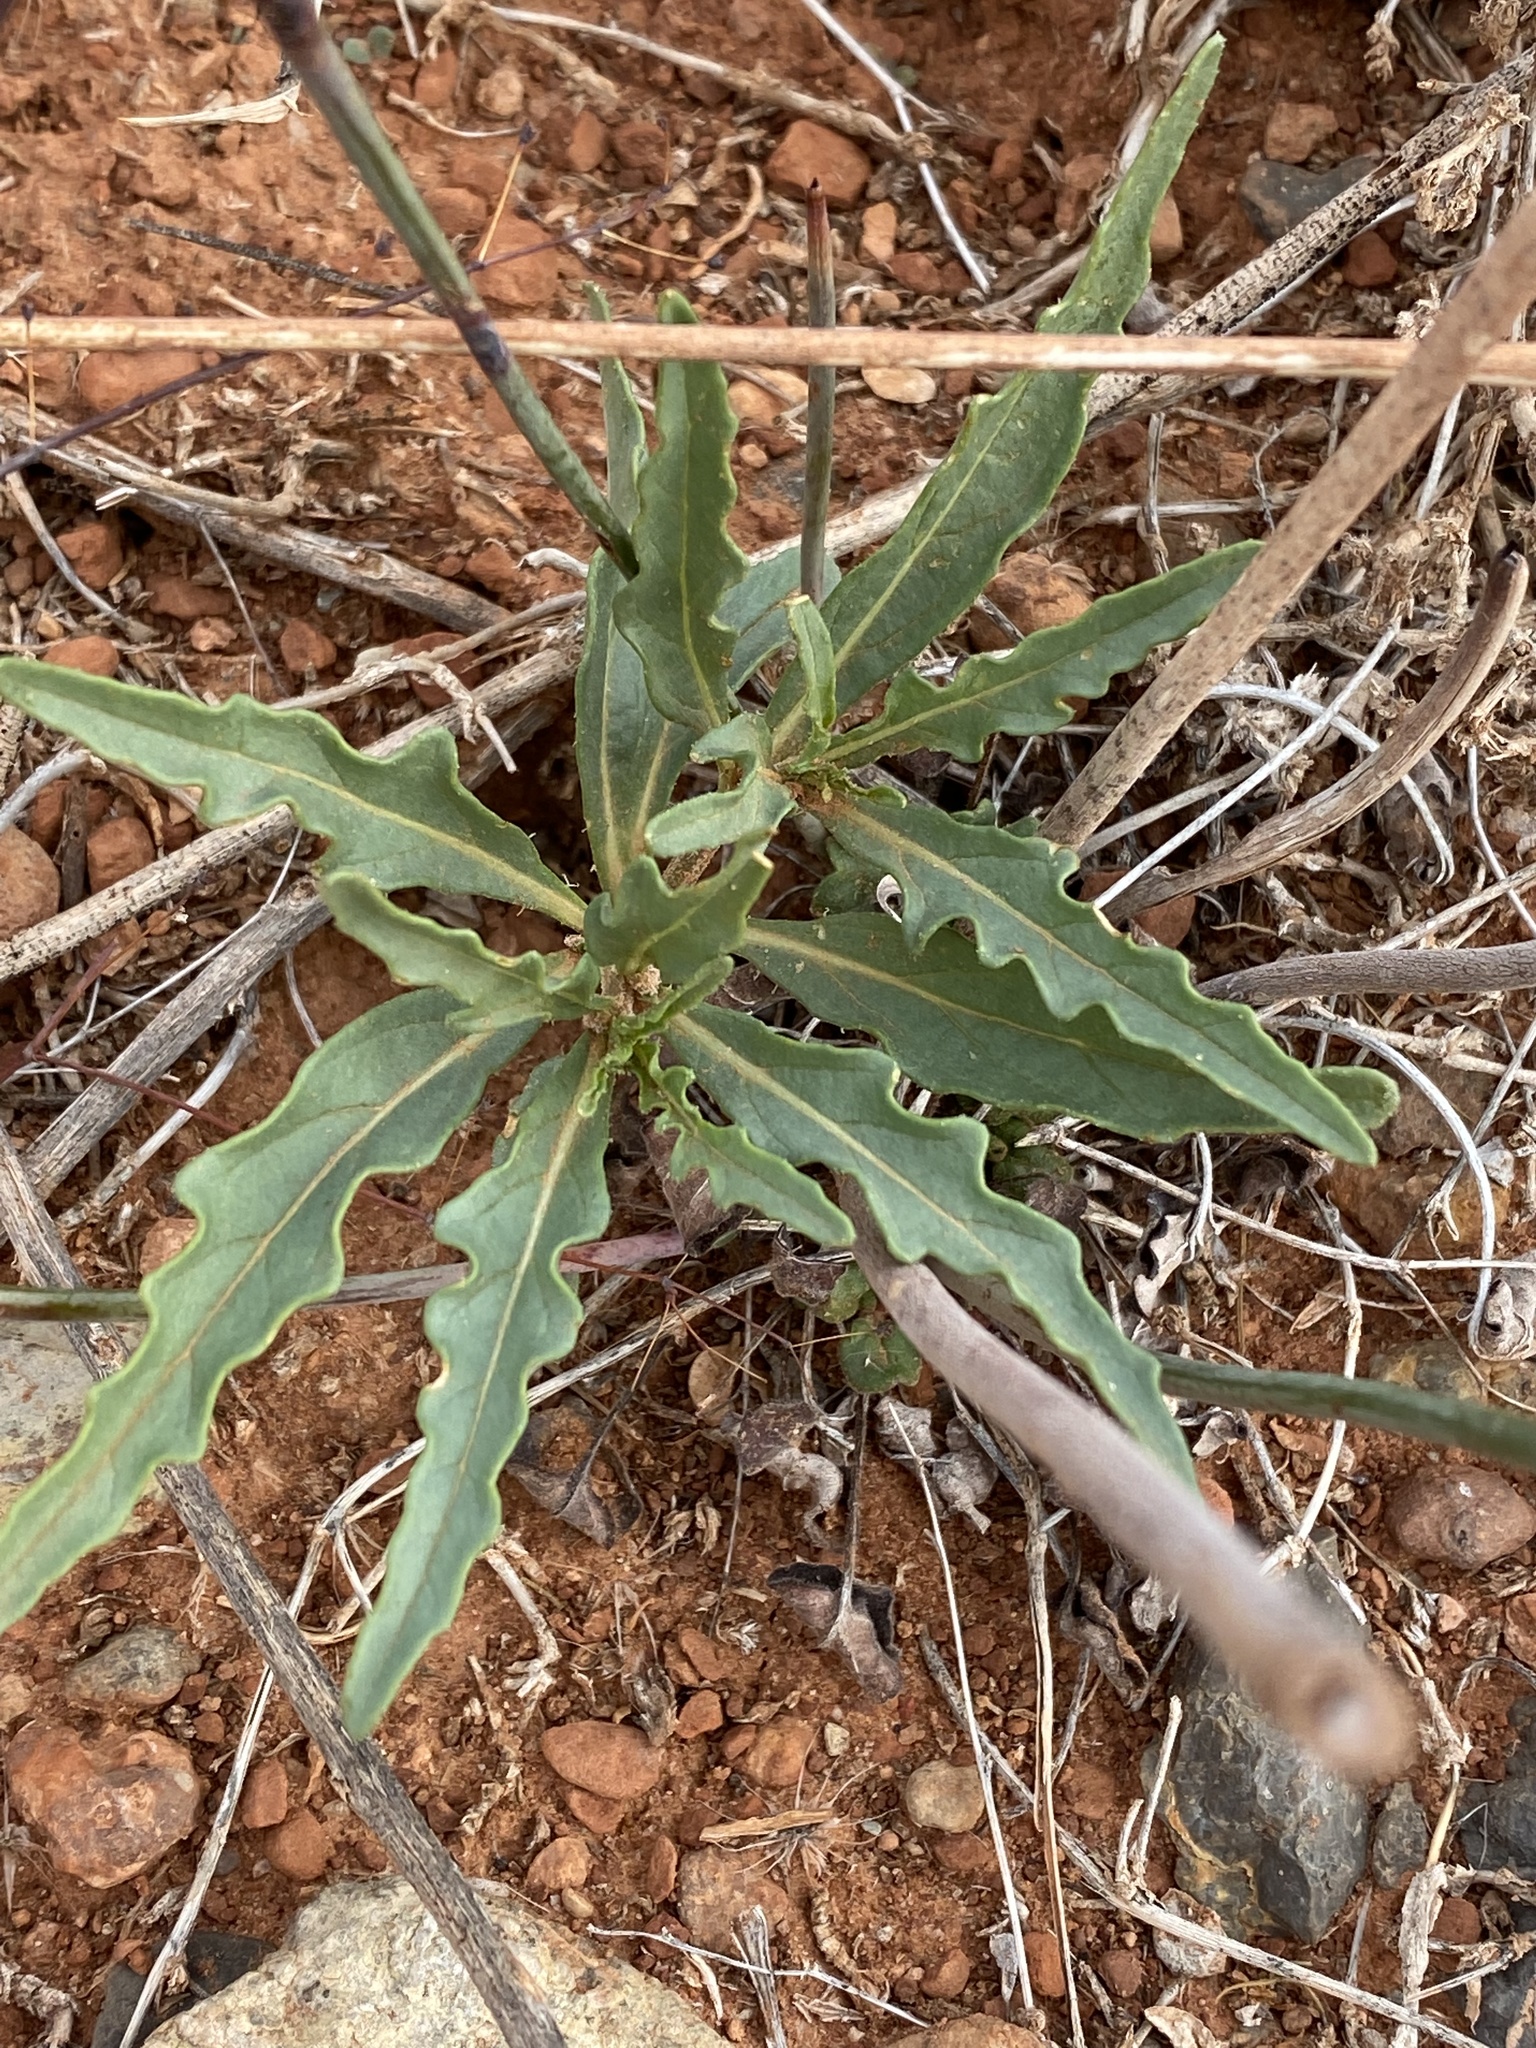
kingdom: Plantae
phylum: Tracheophyta
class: Magnoliopsida
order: Solanales
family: Solanaceae
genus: Chamaesaracha
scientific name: Chamaesaracha coronopus
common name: Smooth chamaesaracha
